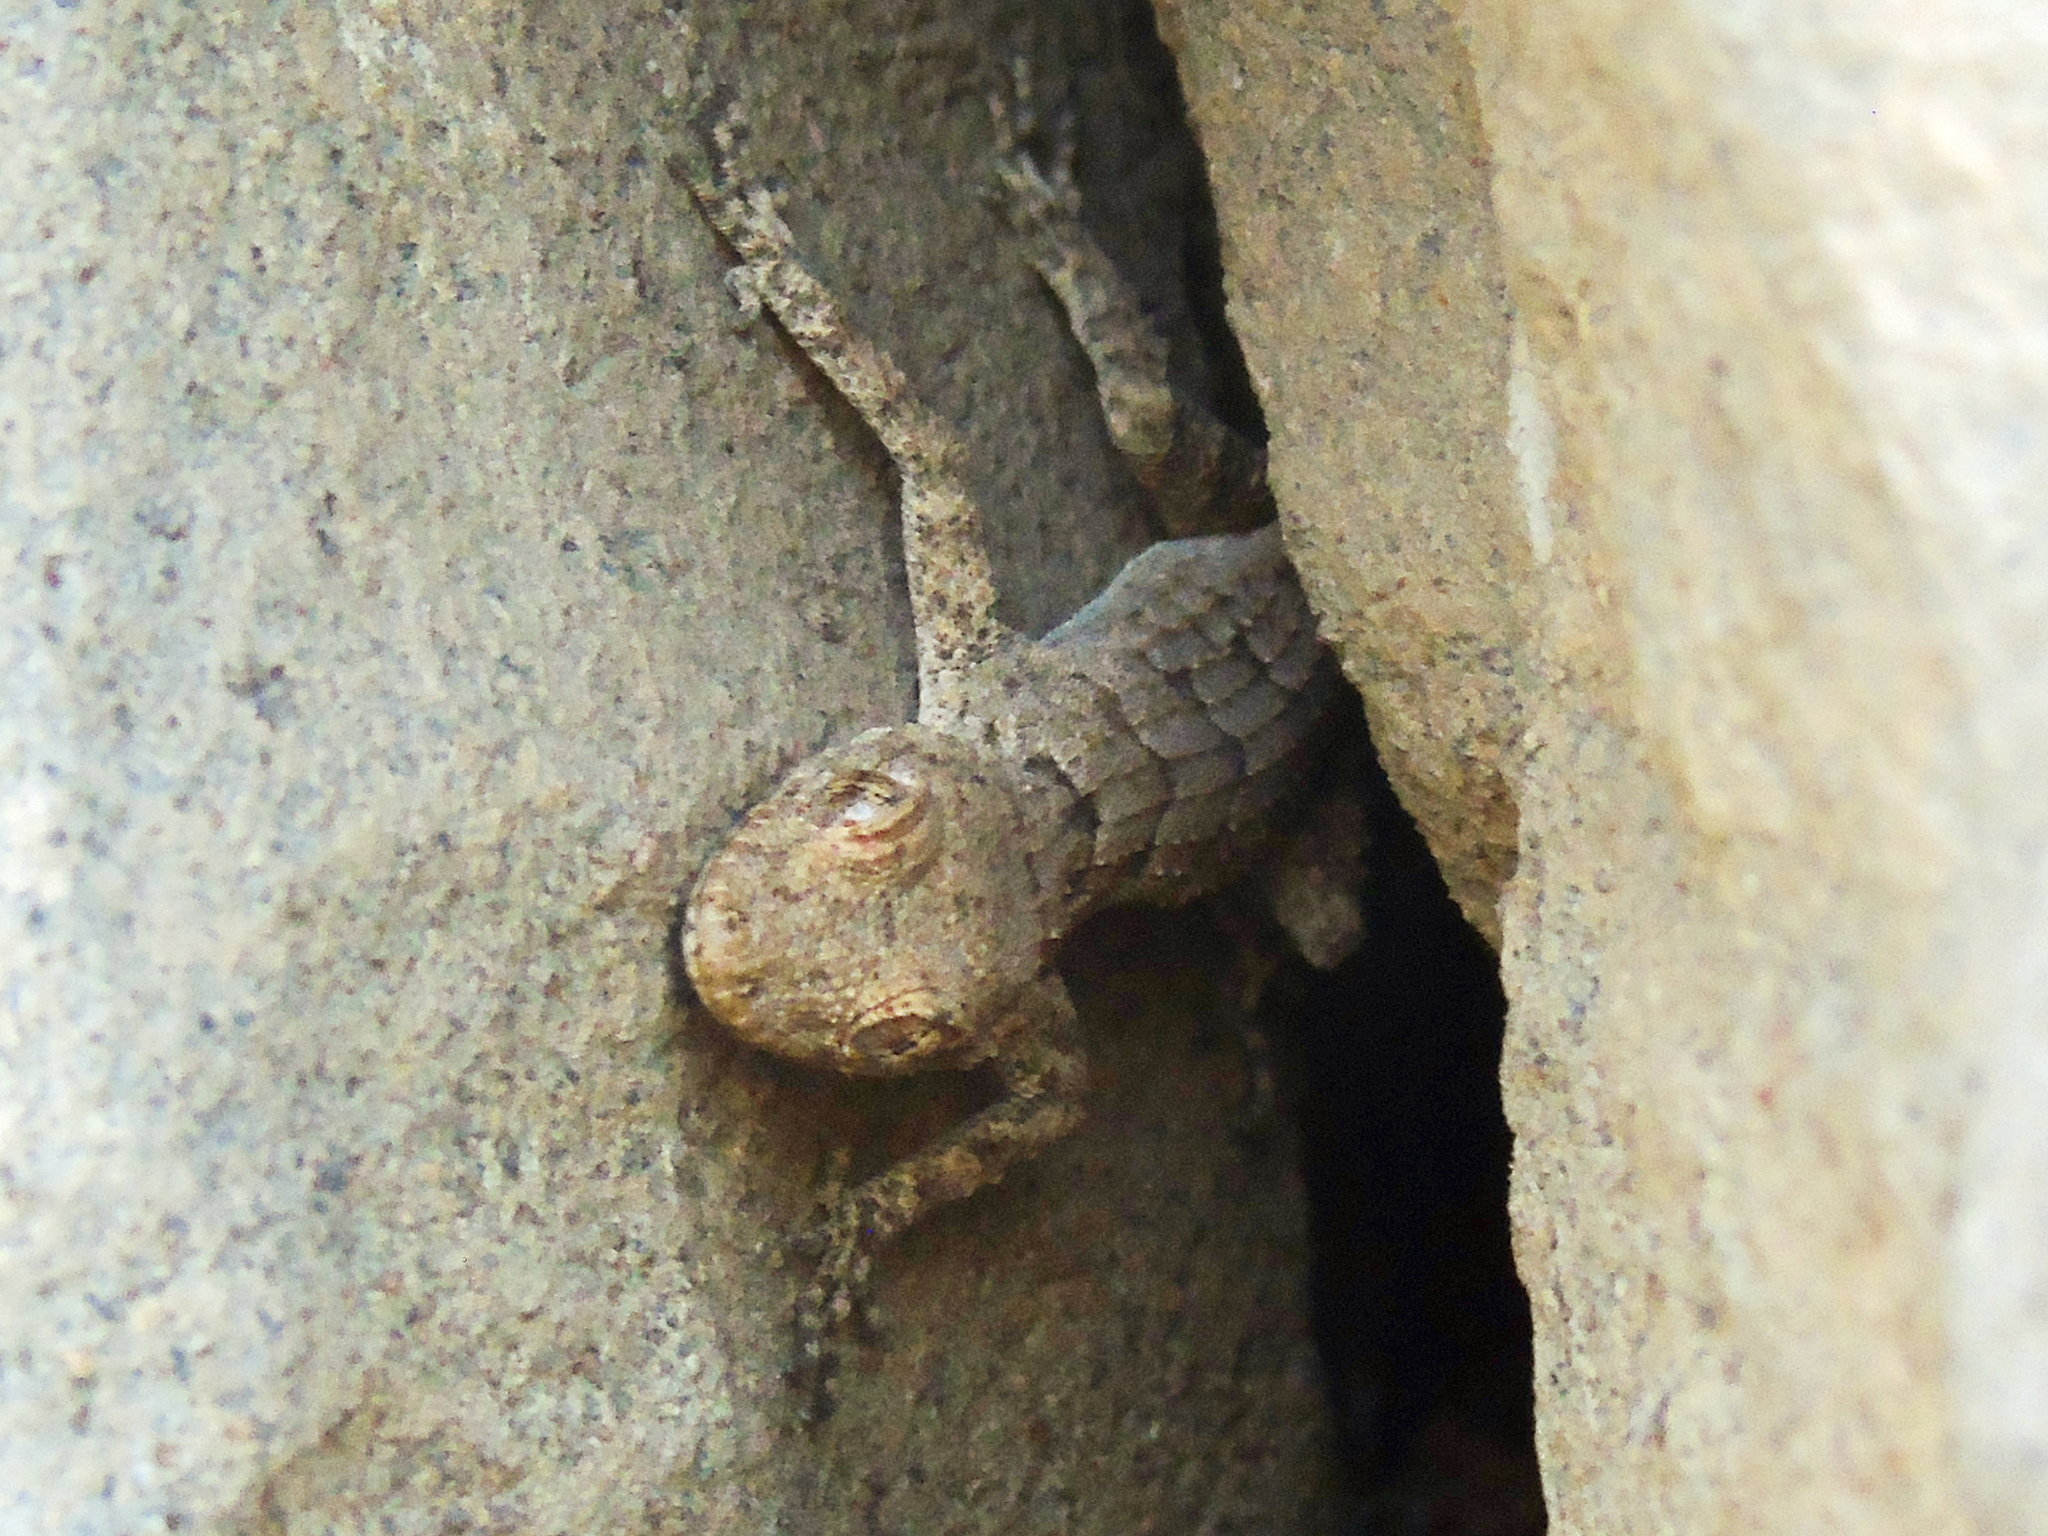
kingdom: Animalia
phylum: Chordata
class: Squamata
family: Gekkonidae
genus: Mediodactylus
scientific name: Mediodactylus heterocercus
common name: Asia minor thin-toed gecko
